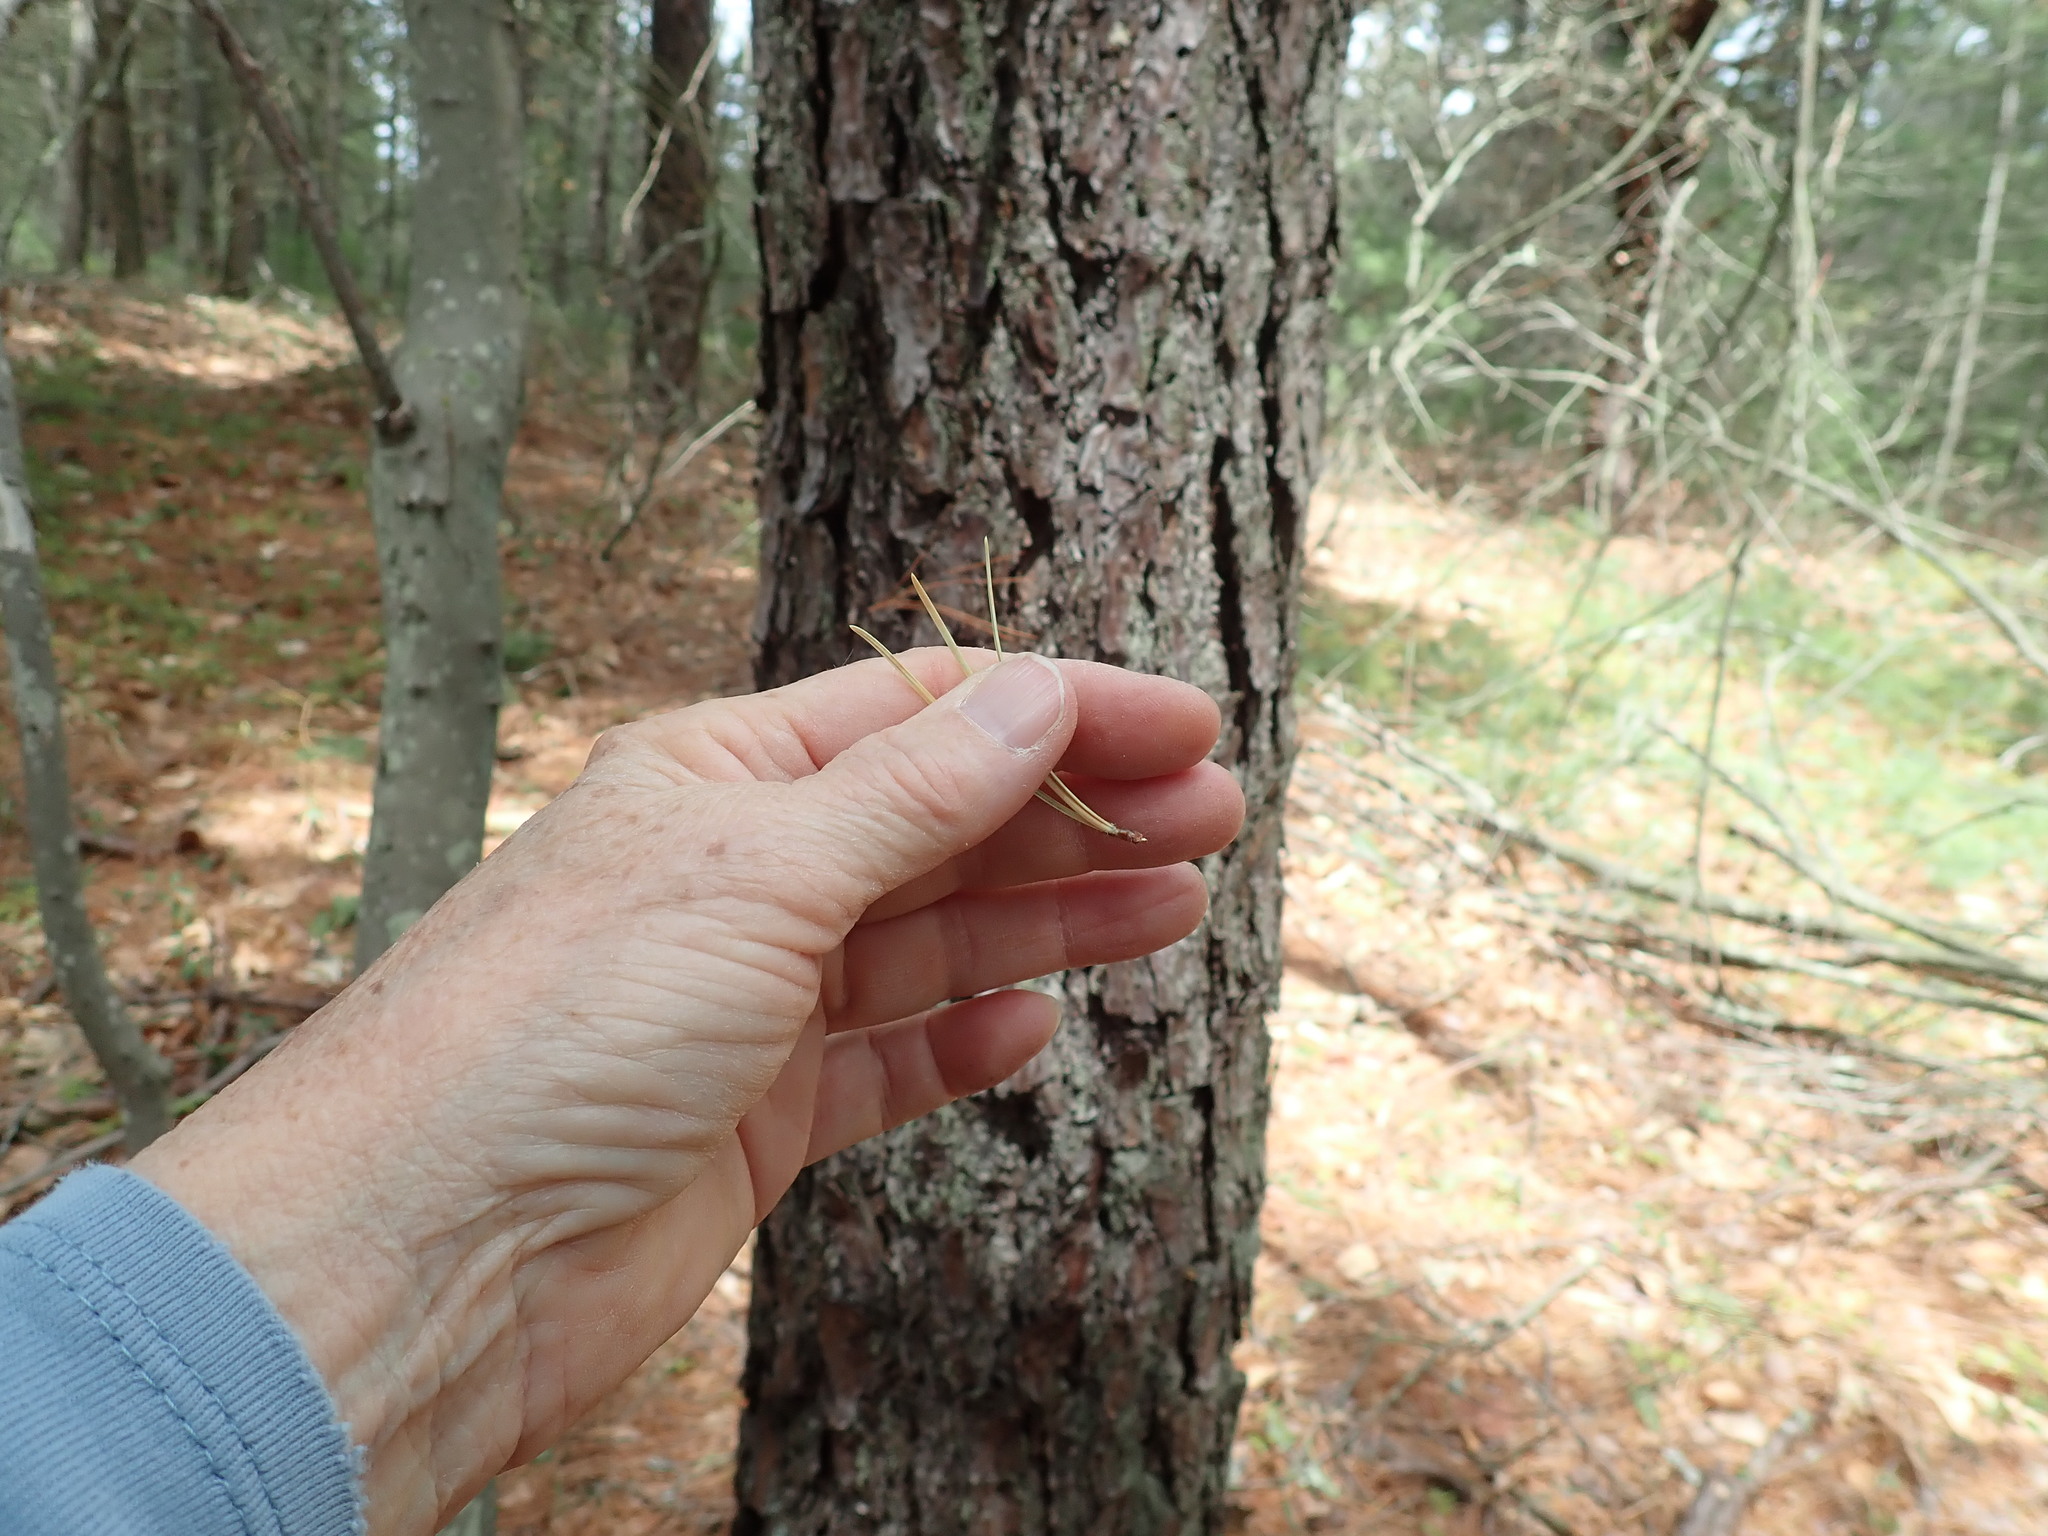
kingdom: Plantae
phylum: Tracheophyta
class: Pinopsida
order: Pinales
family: Pinaceae
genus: Pinus
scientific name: Pinus rigida
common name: Pitch pine
